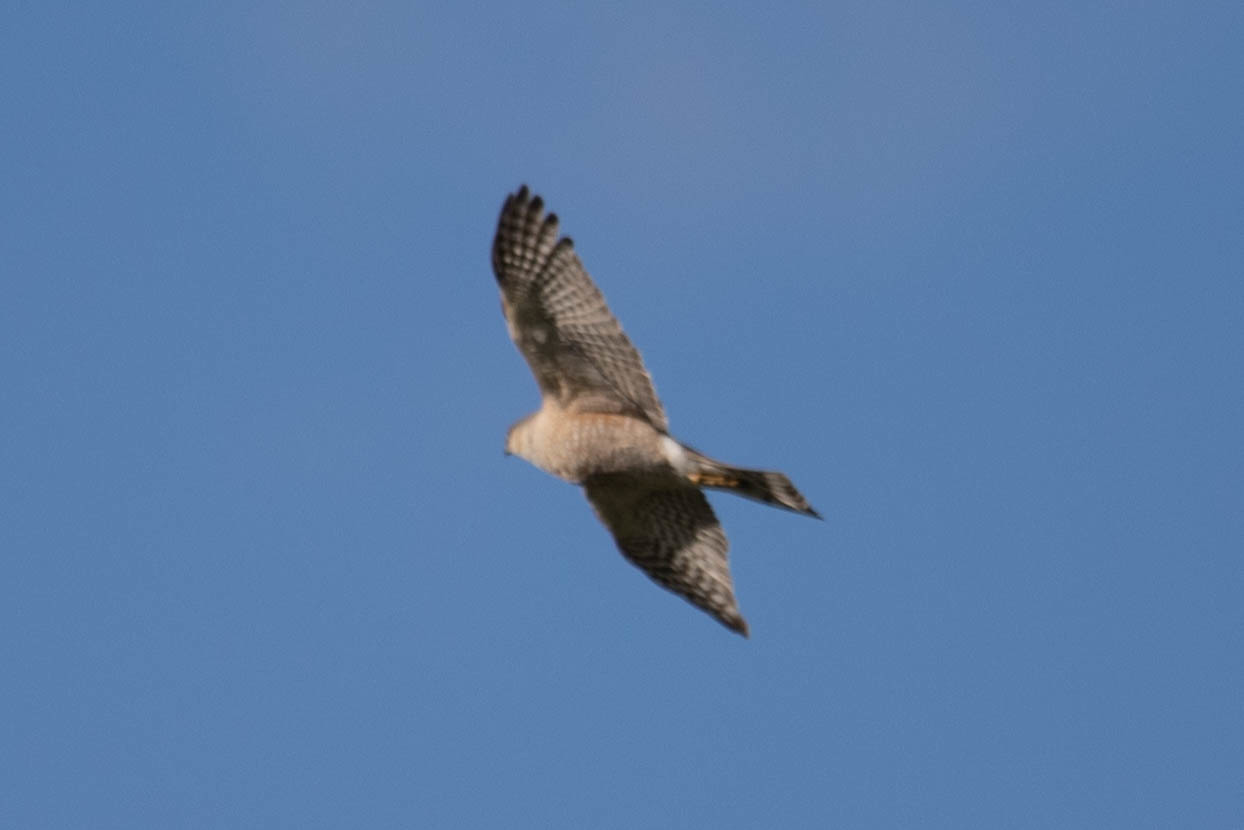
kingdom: Animalia
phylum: Chordata
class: Aves
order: Accipitriformes
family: Accipitridae
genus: Accipiter
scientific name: Accipiter striatus
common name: Sharp-shinned hawk
